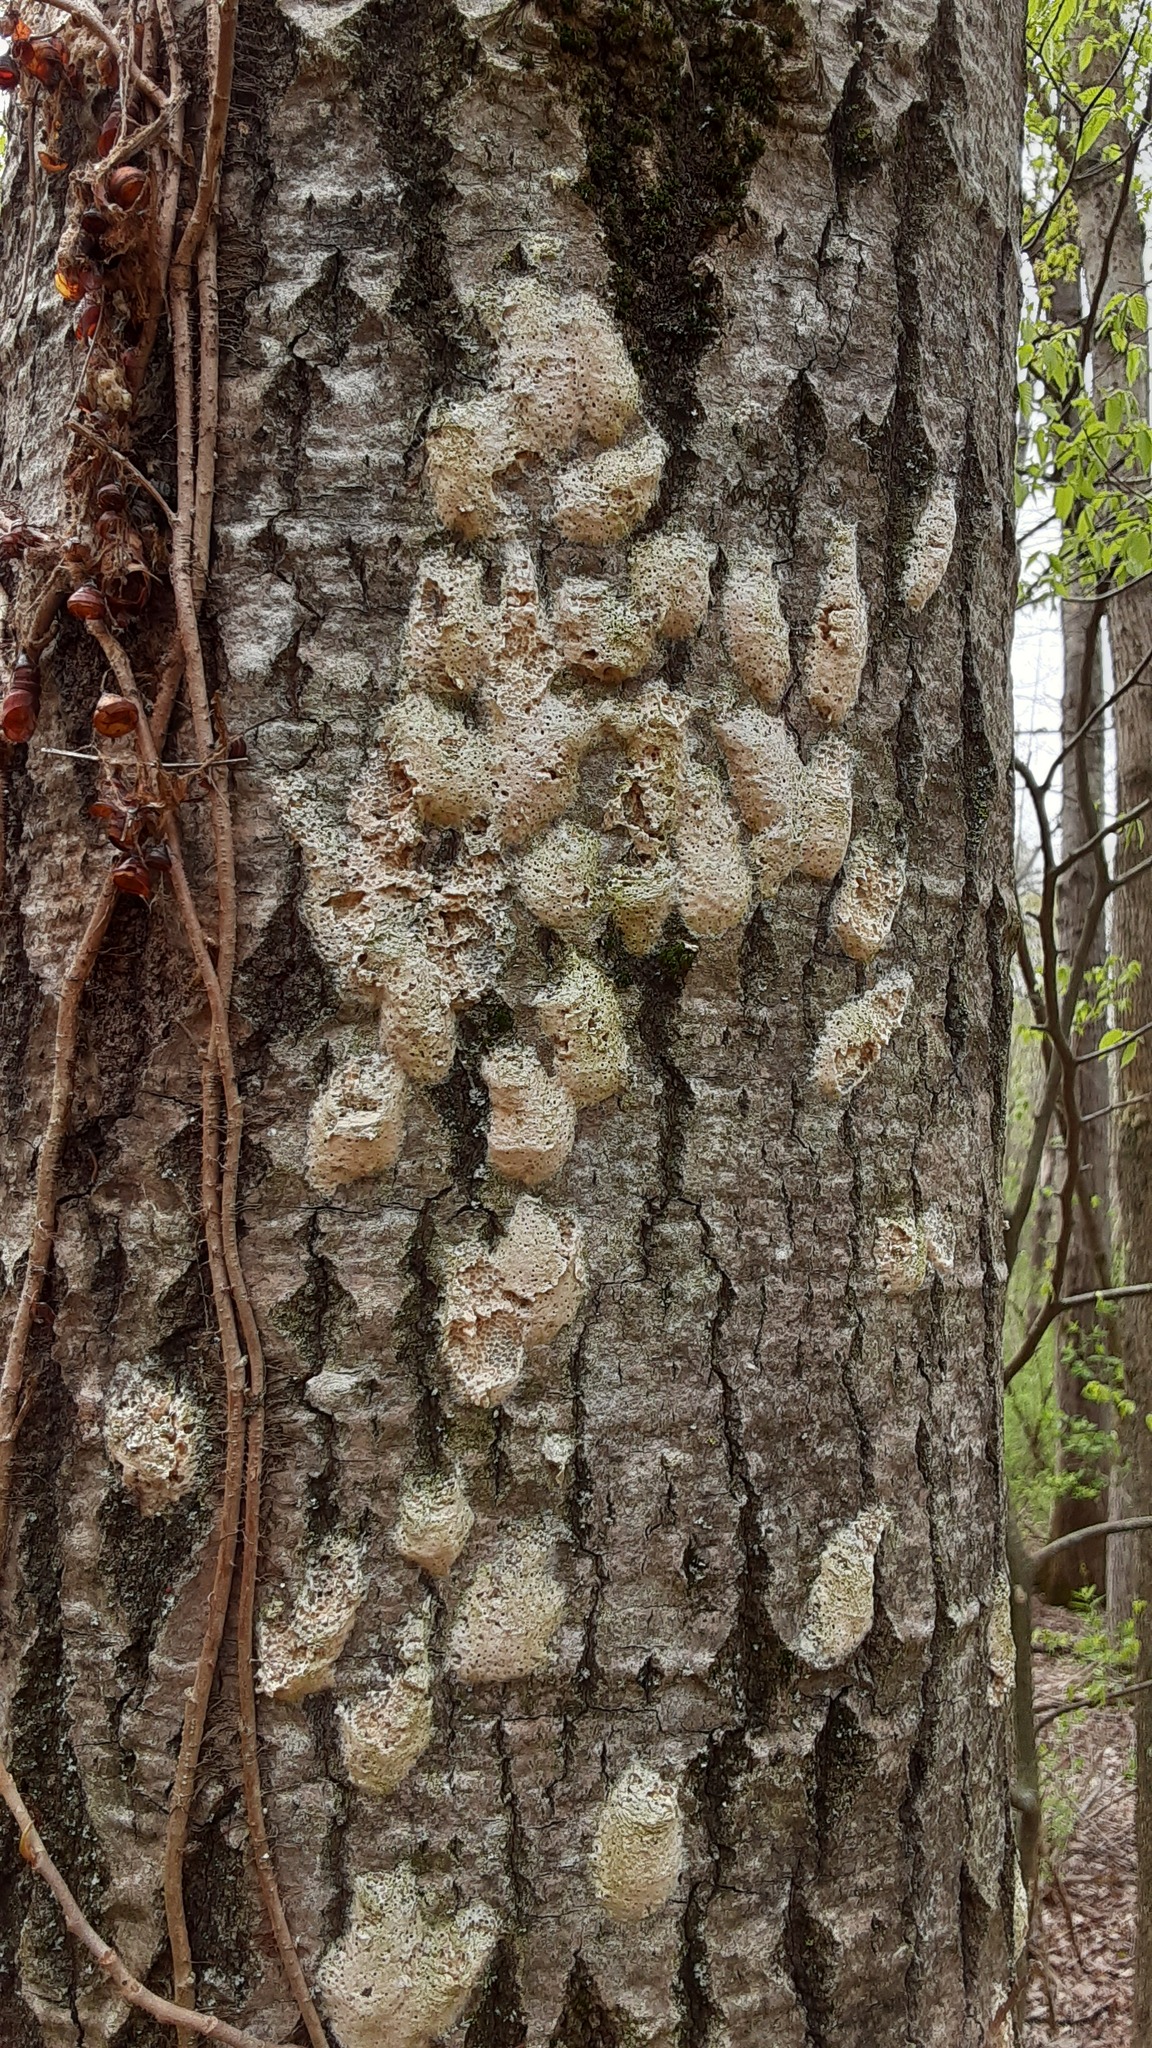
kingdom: Animalia
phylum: Arthropoda
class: Insecta
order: Lepidoptera
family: Erebidae
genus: Lymantria
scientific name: Lymantria dispar
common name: Gypsy moth
